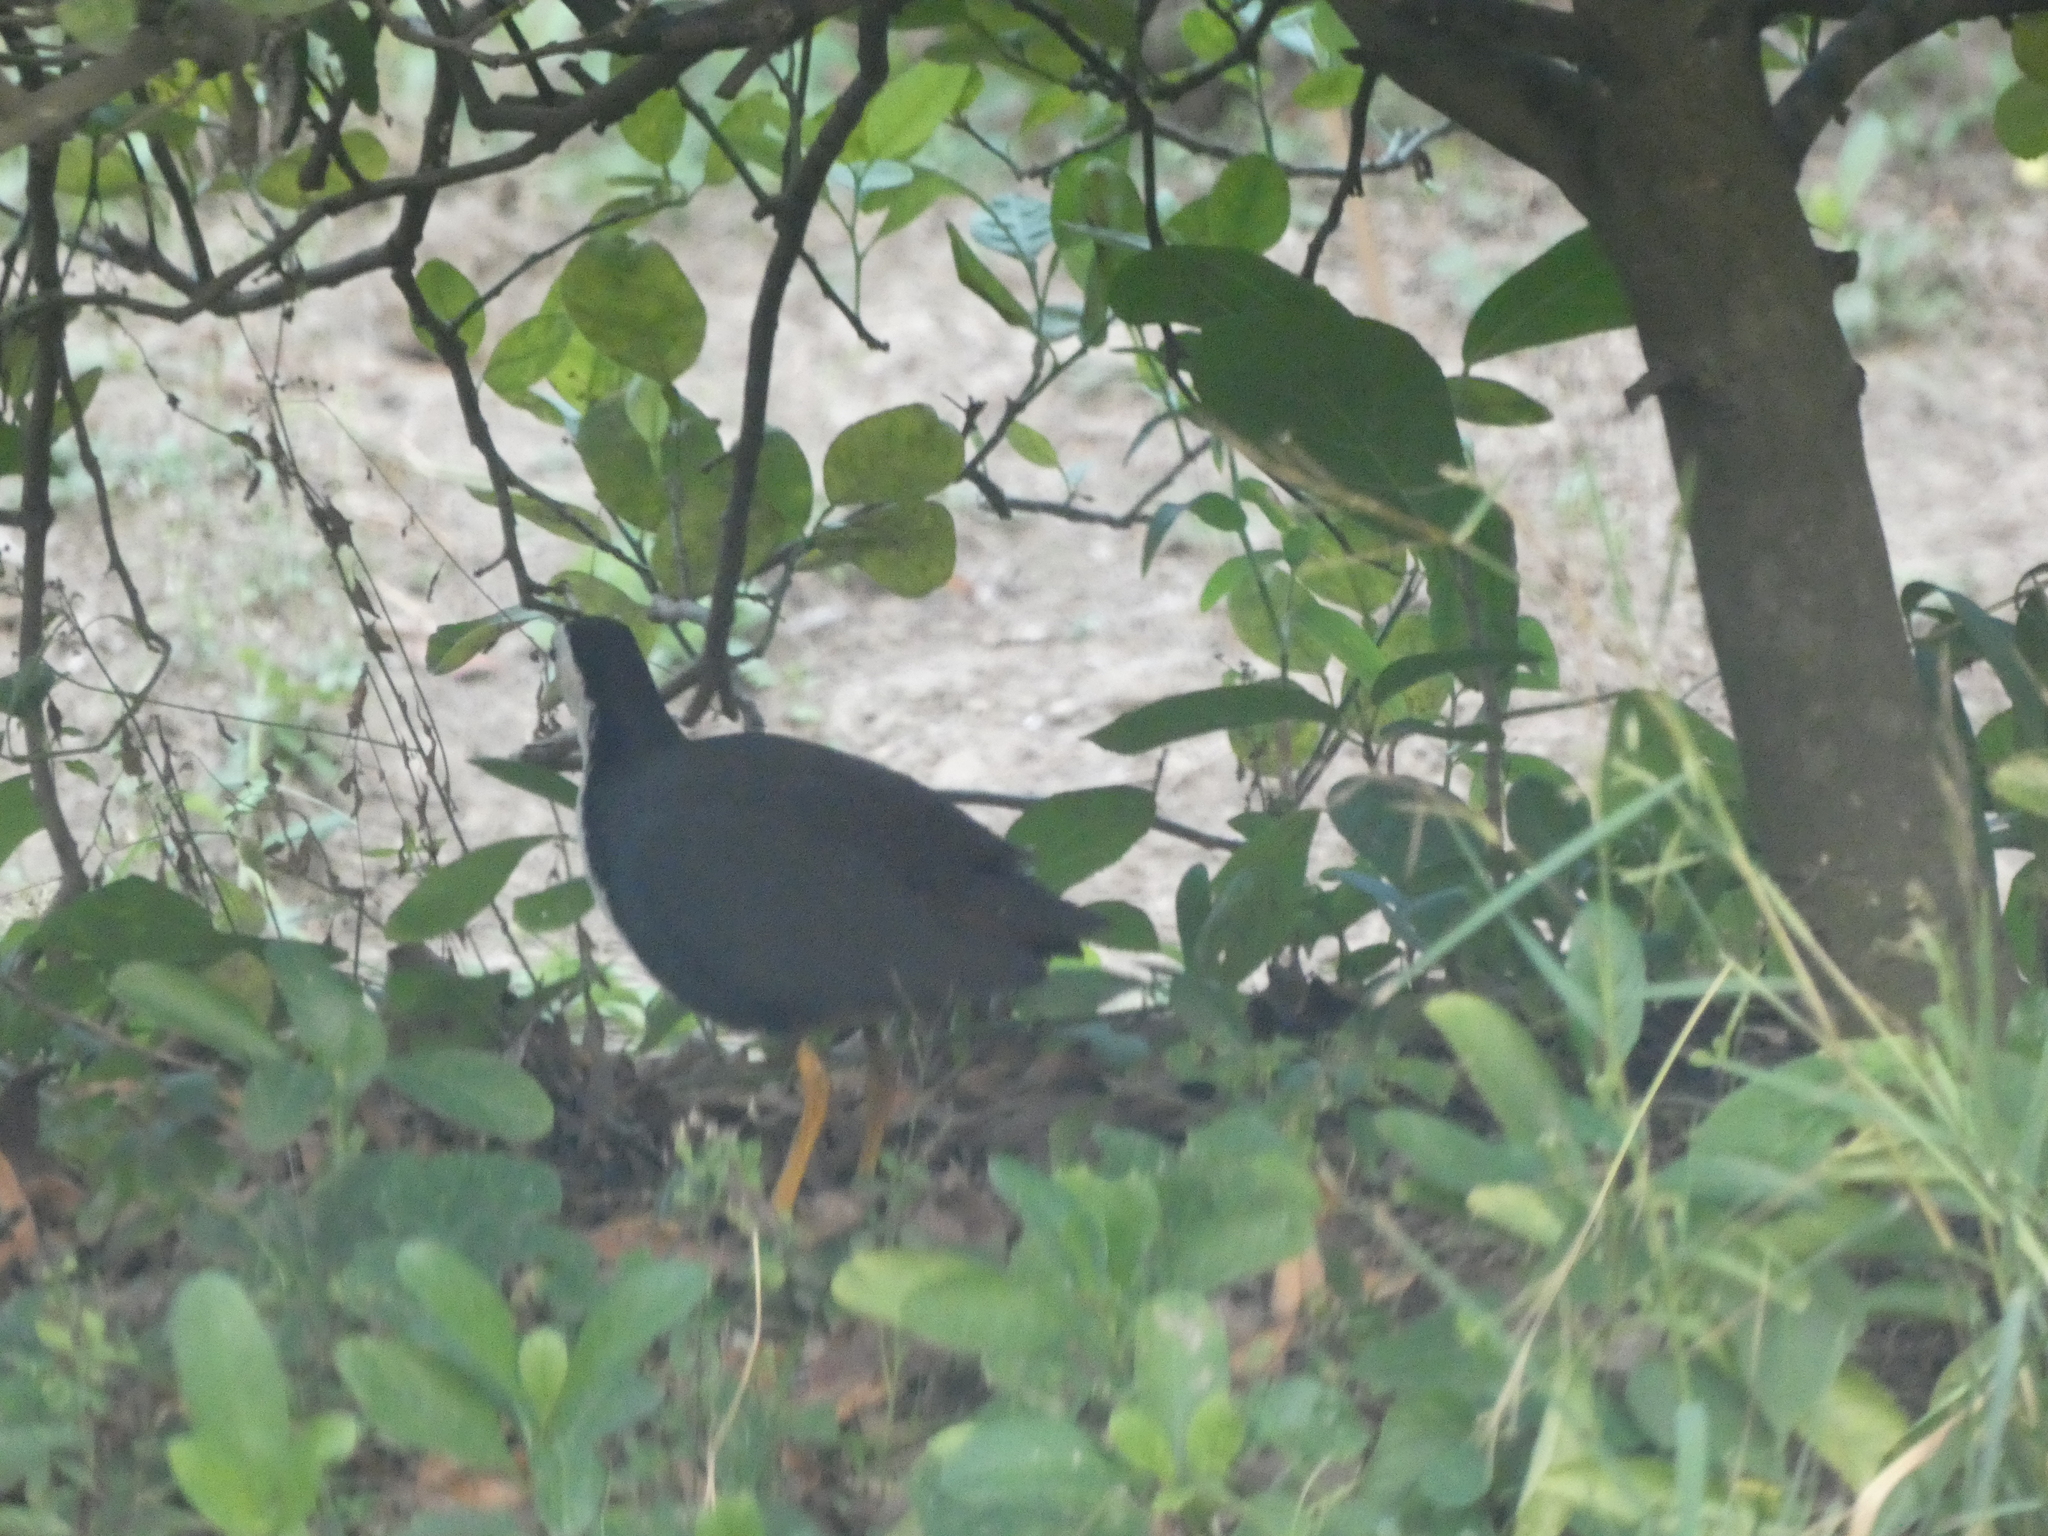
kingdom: Animalia
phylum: Chordata
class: Aves
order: Gruiformes
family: Rallidae
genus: Amaurornis
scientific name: Amaurornis phoenicurus
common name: White-breasted waterhen
